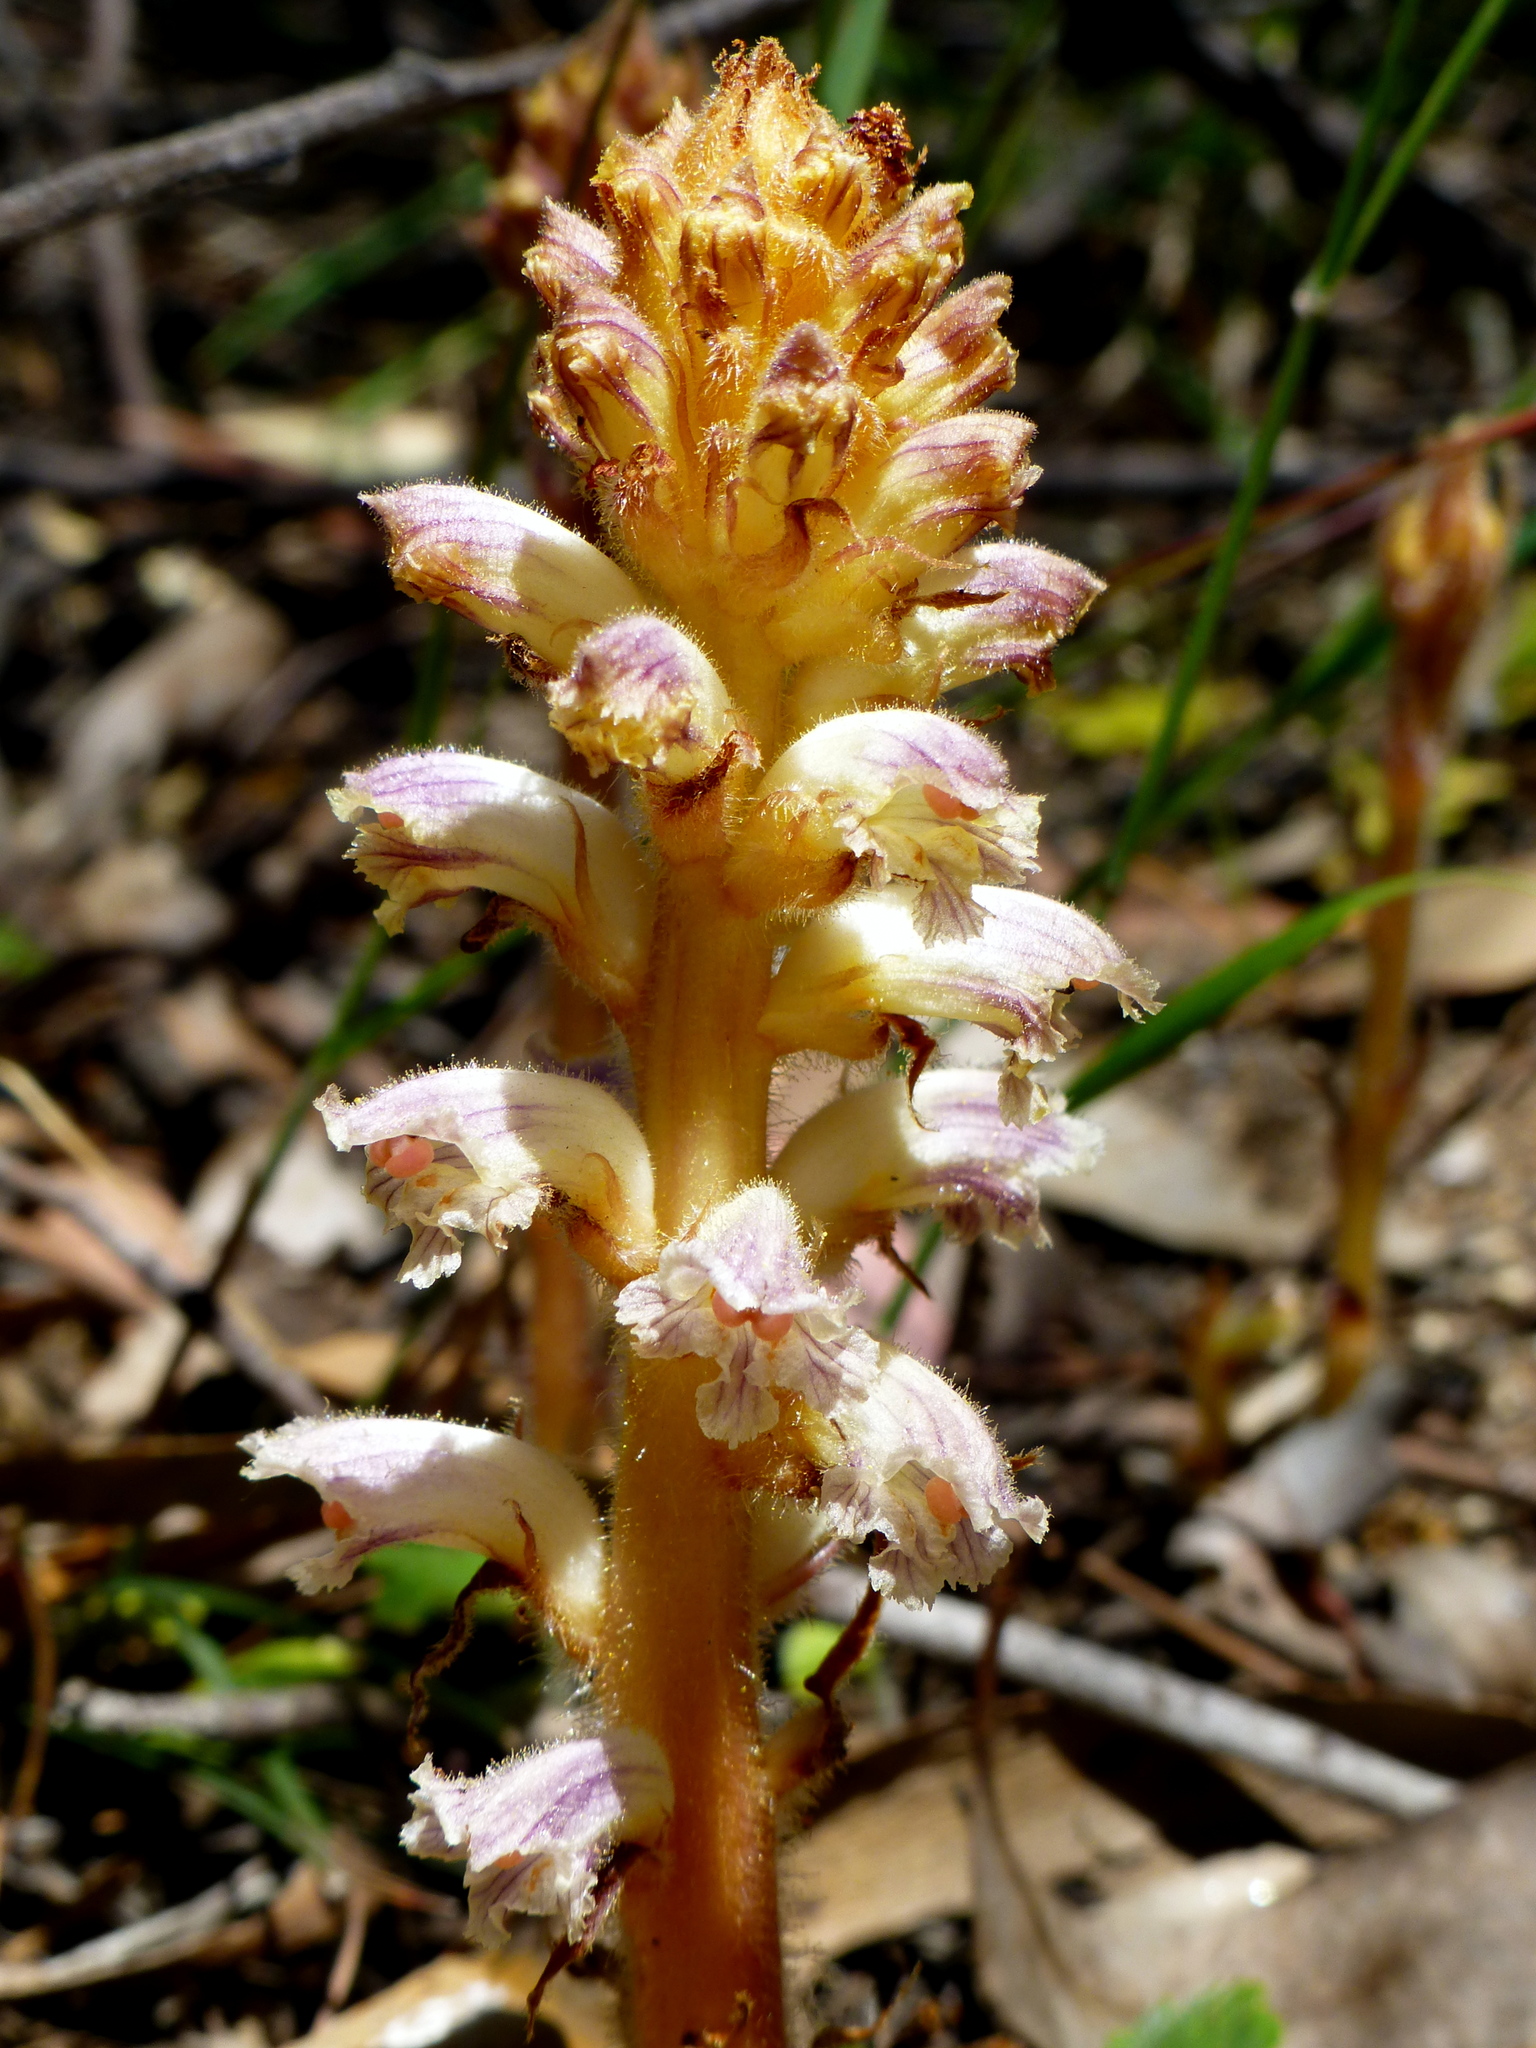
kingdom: Plantae
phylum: Tracheophyta
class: Magnoliopsida
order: Lamiales
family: Orobanchaceae
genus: Orobanche
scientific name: Orobanche minor
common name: Common broomrape
